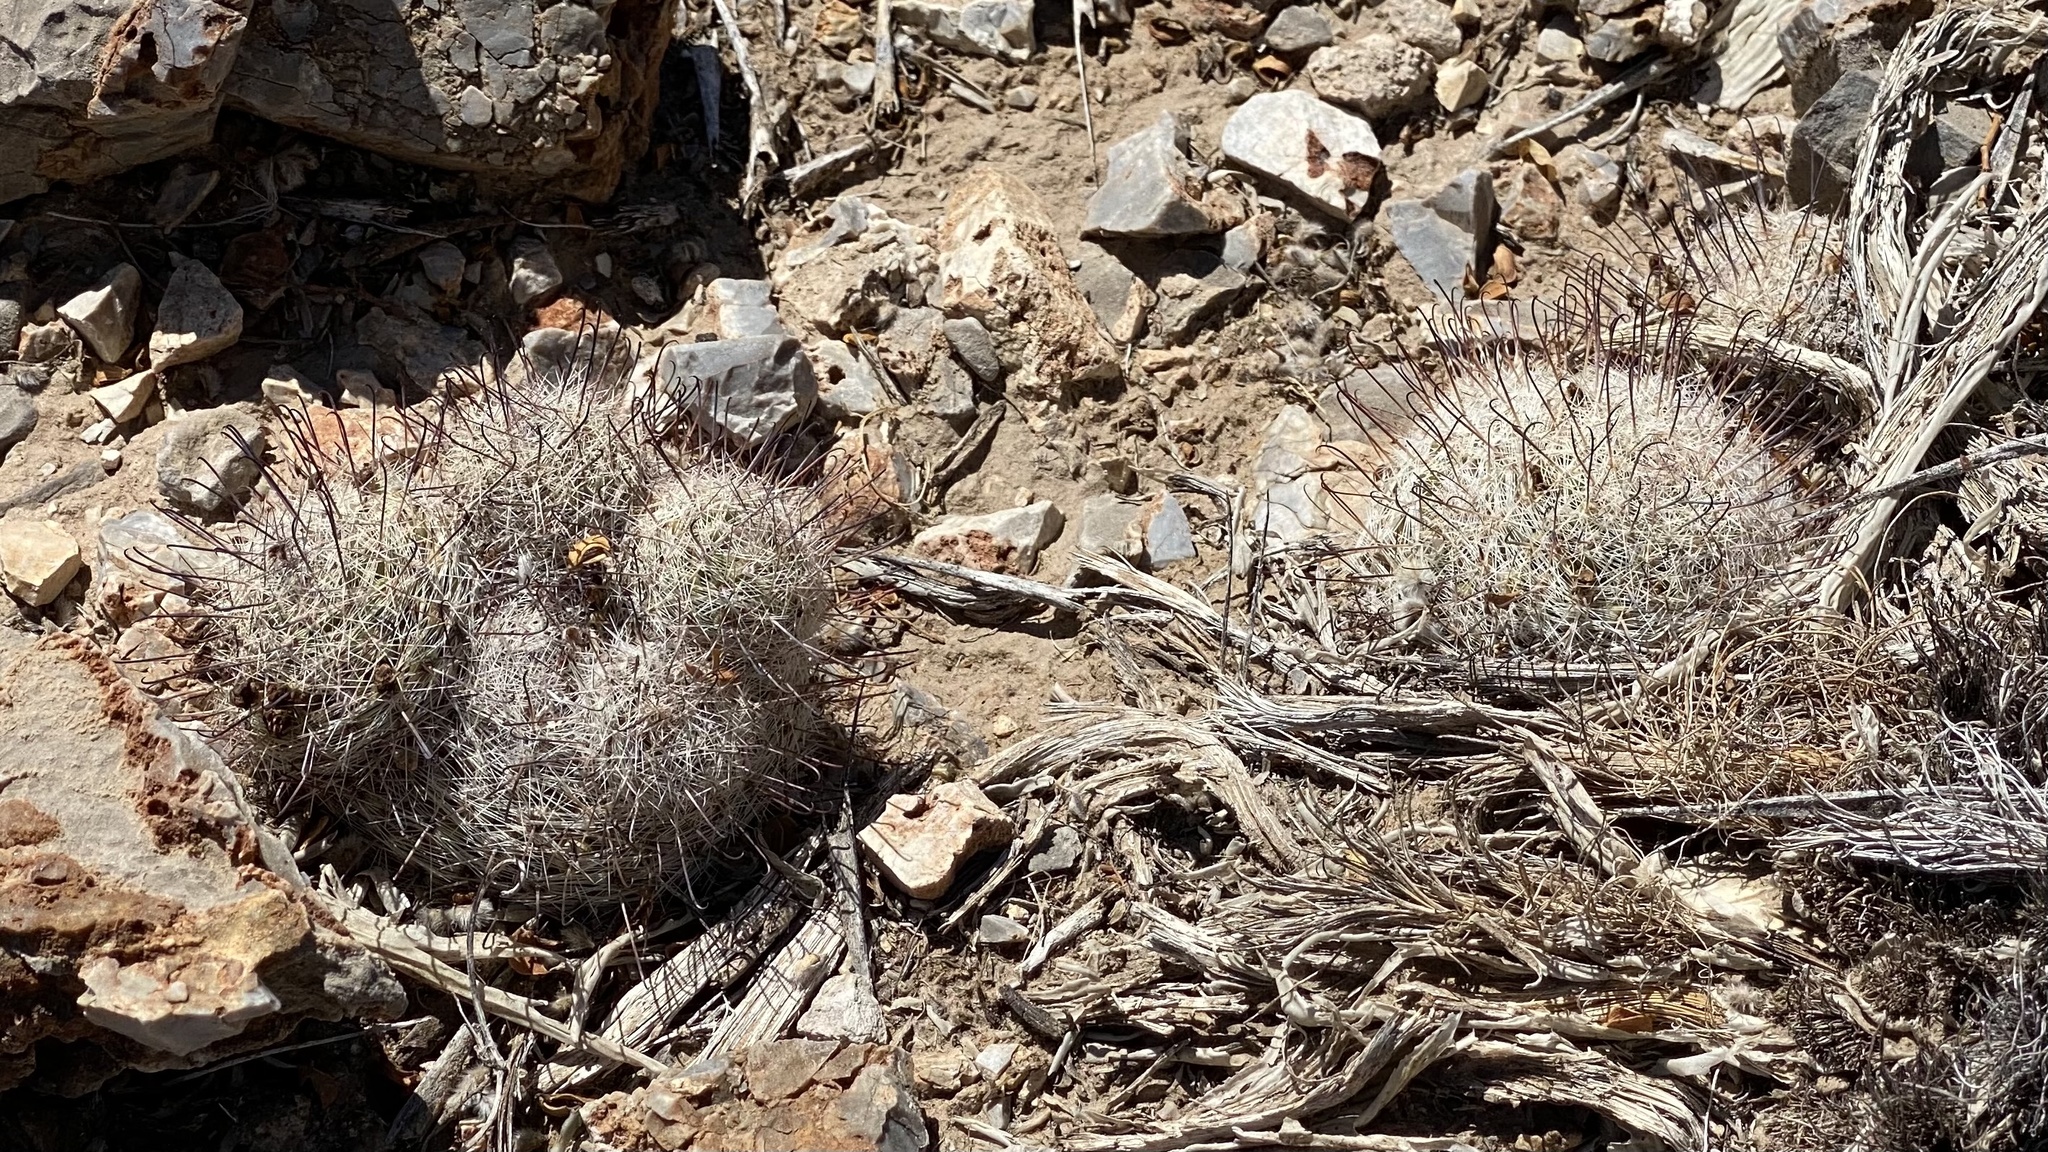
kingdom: Plantae
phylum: Tracheophyta
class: Magnoliopsida
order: Caryophyllales
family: Cactaceae
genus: Cochemiea
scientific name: Cochemiea grahamii
